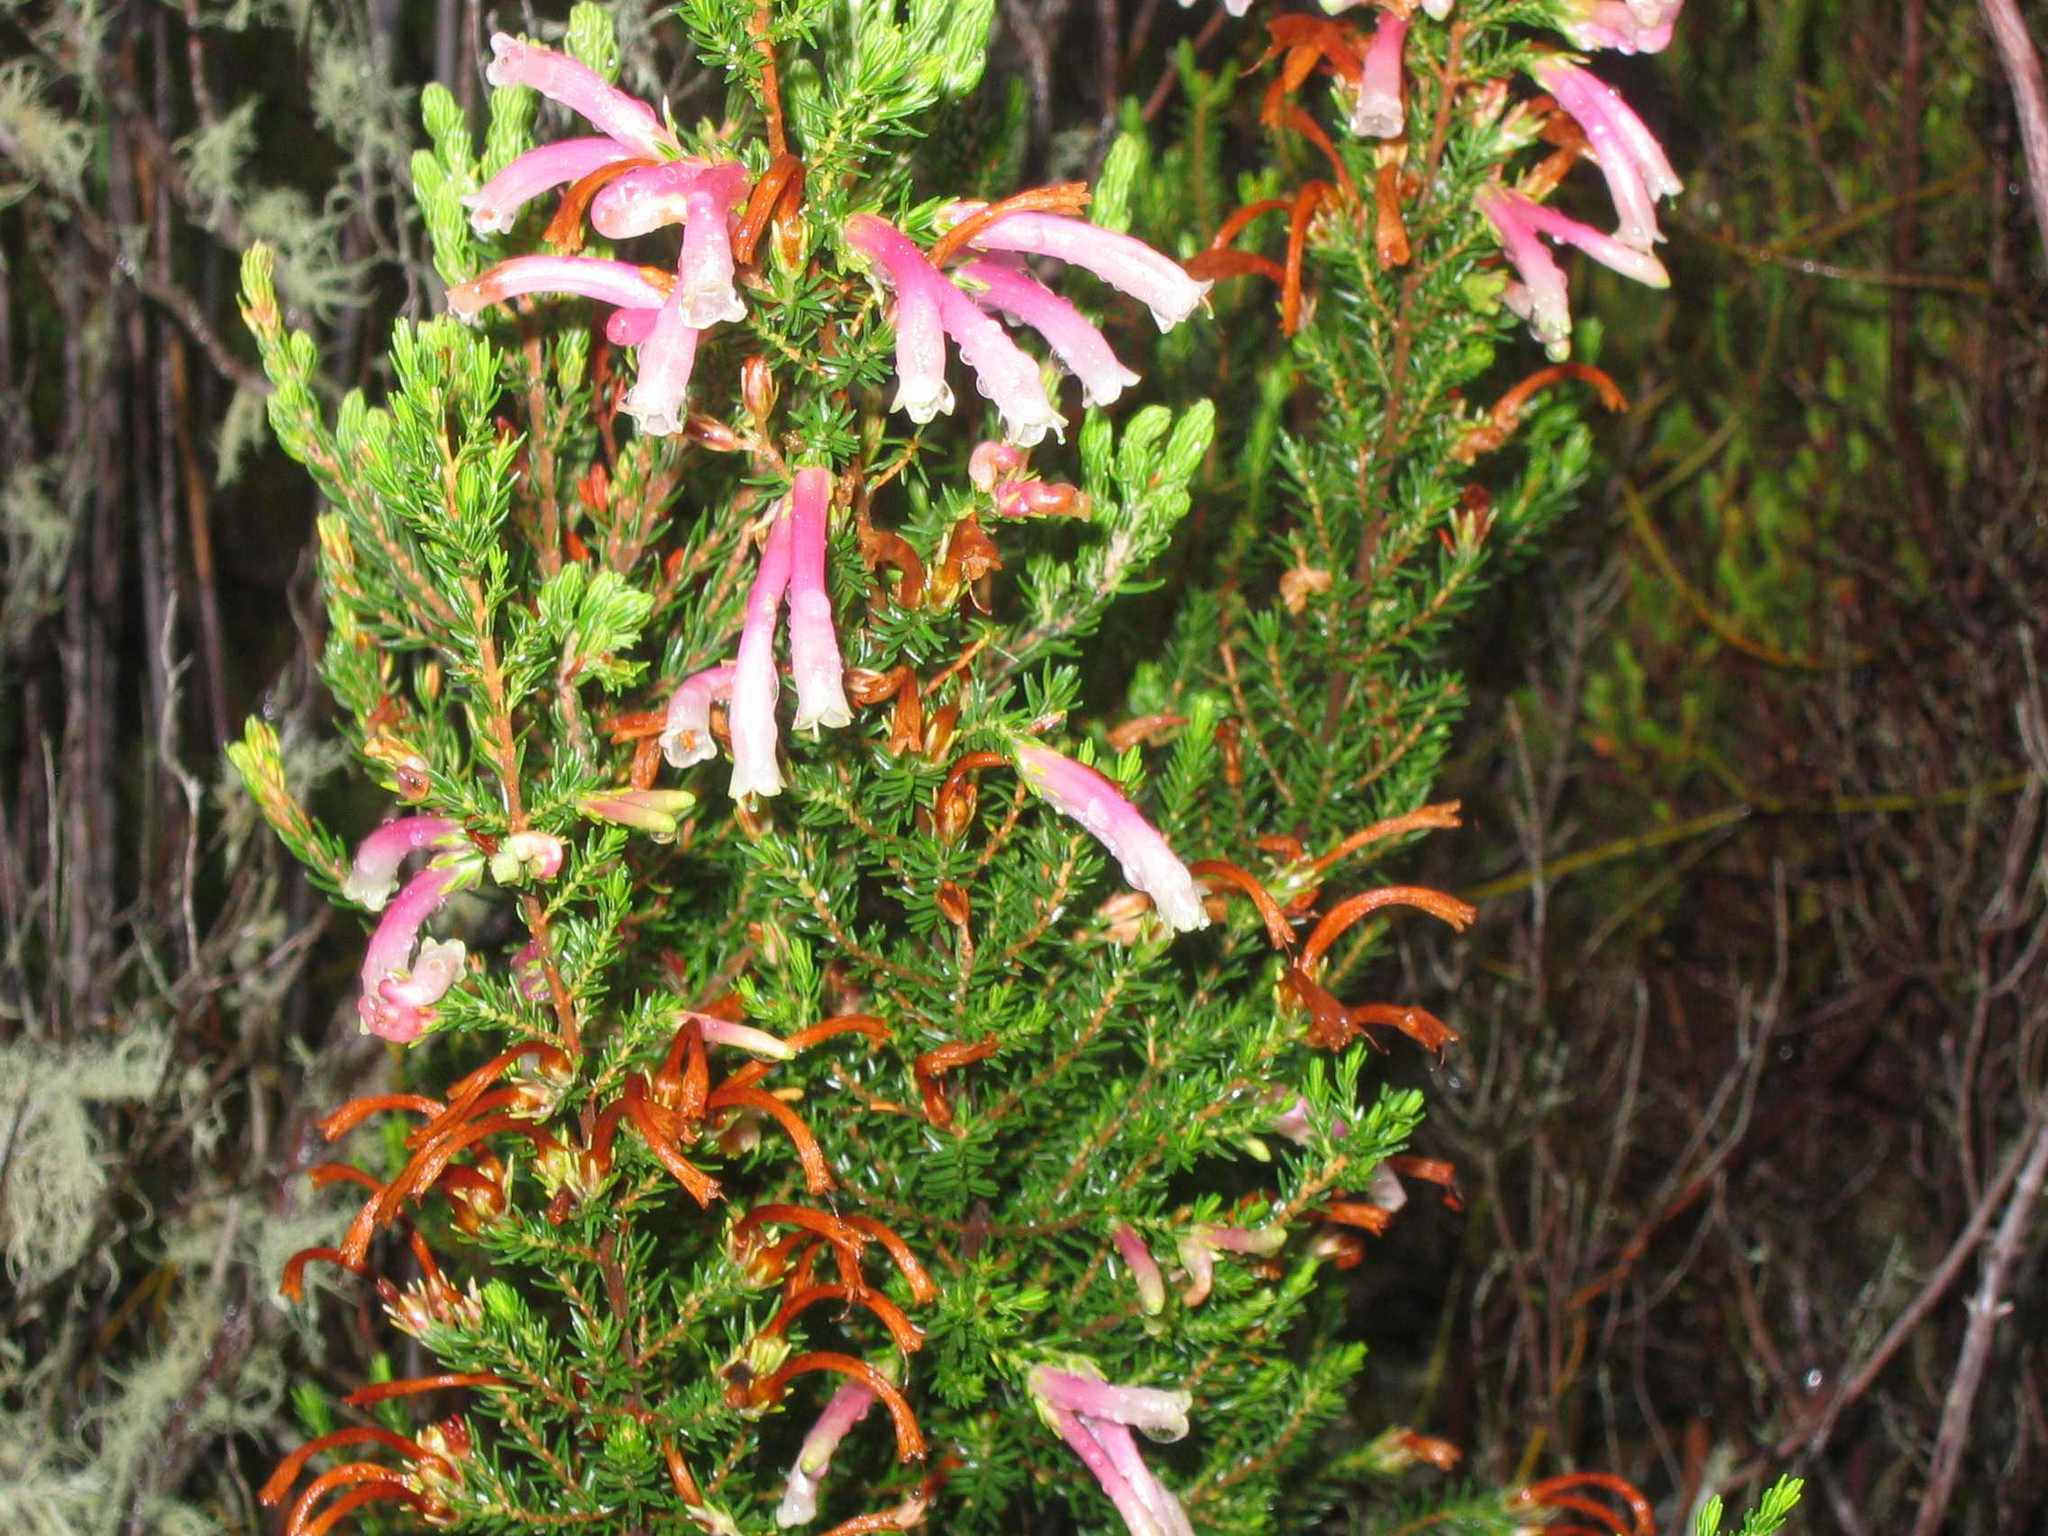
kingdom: Plantae
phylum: Tracheophyta
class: Magnoliopsida
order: Ericales
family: Ericaceae
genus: Erica
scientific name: Erica discolor
